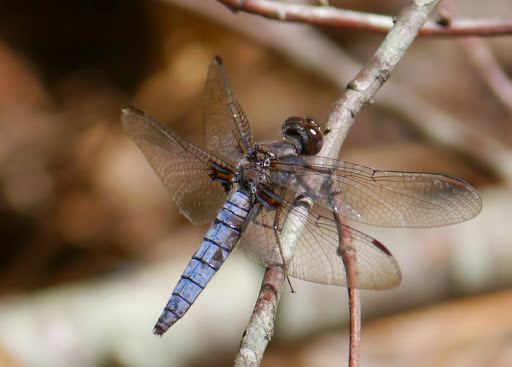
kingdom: Animalia
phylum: Arthropoda
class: Insecta
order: Odonata
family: Libellulidae
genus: Ladona
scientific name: Ladona deplanata
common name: Blue corporal
